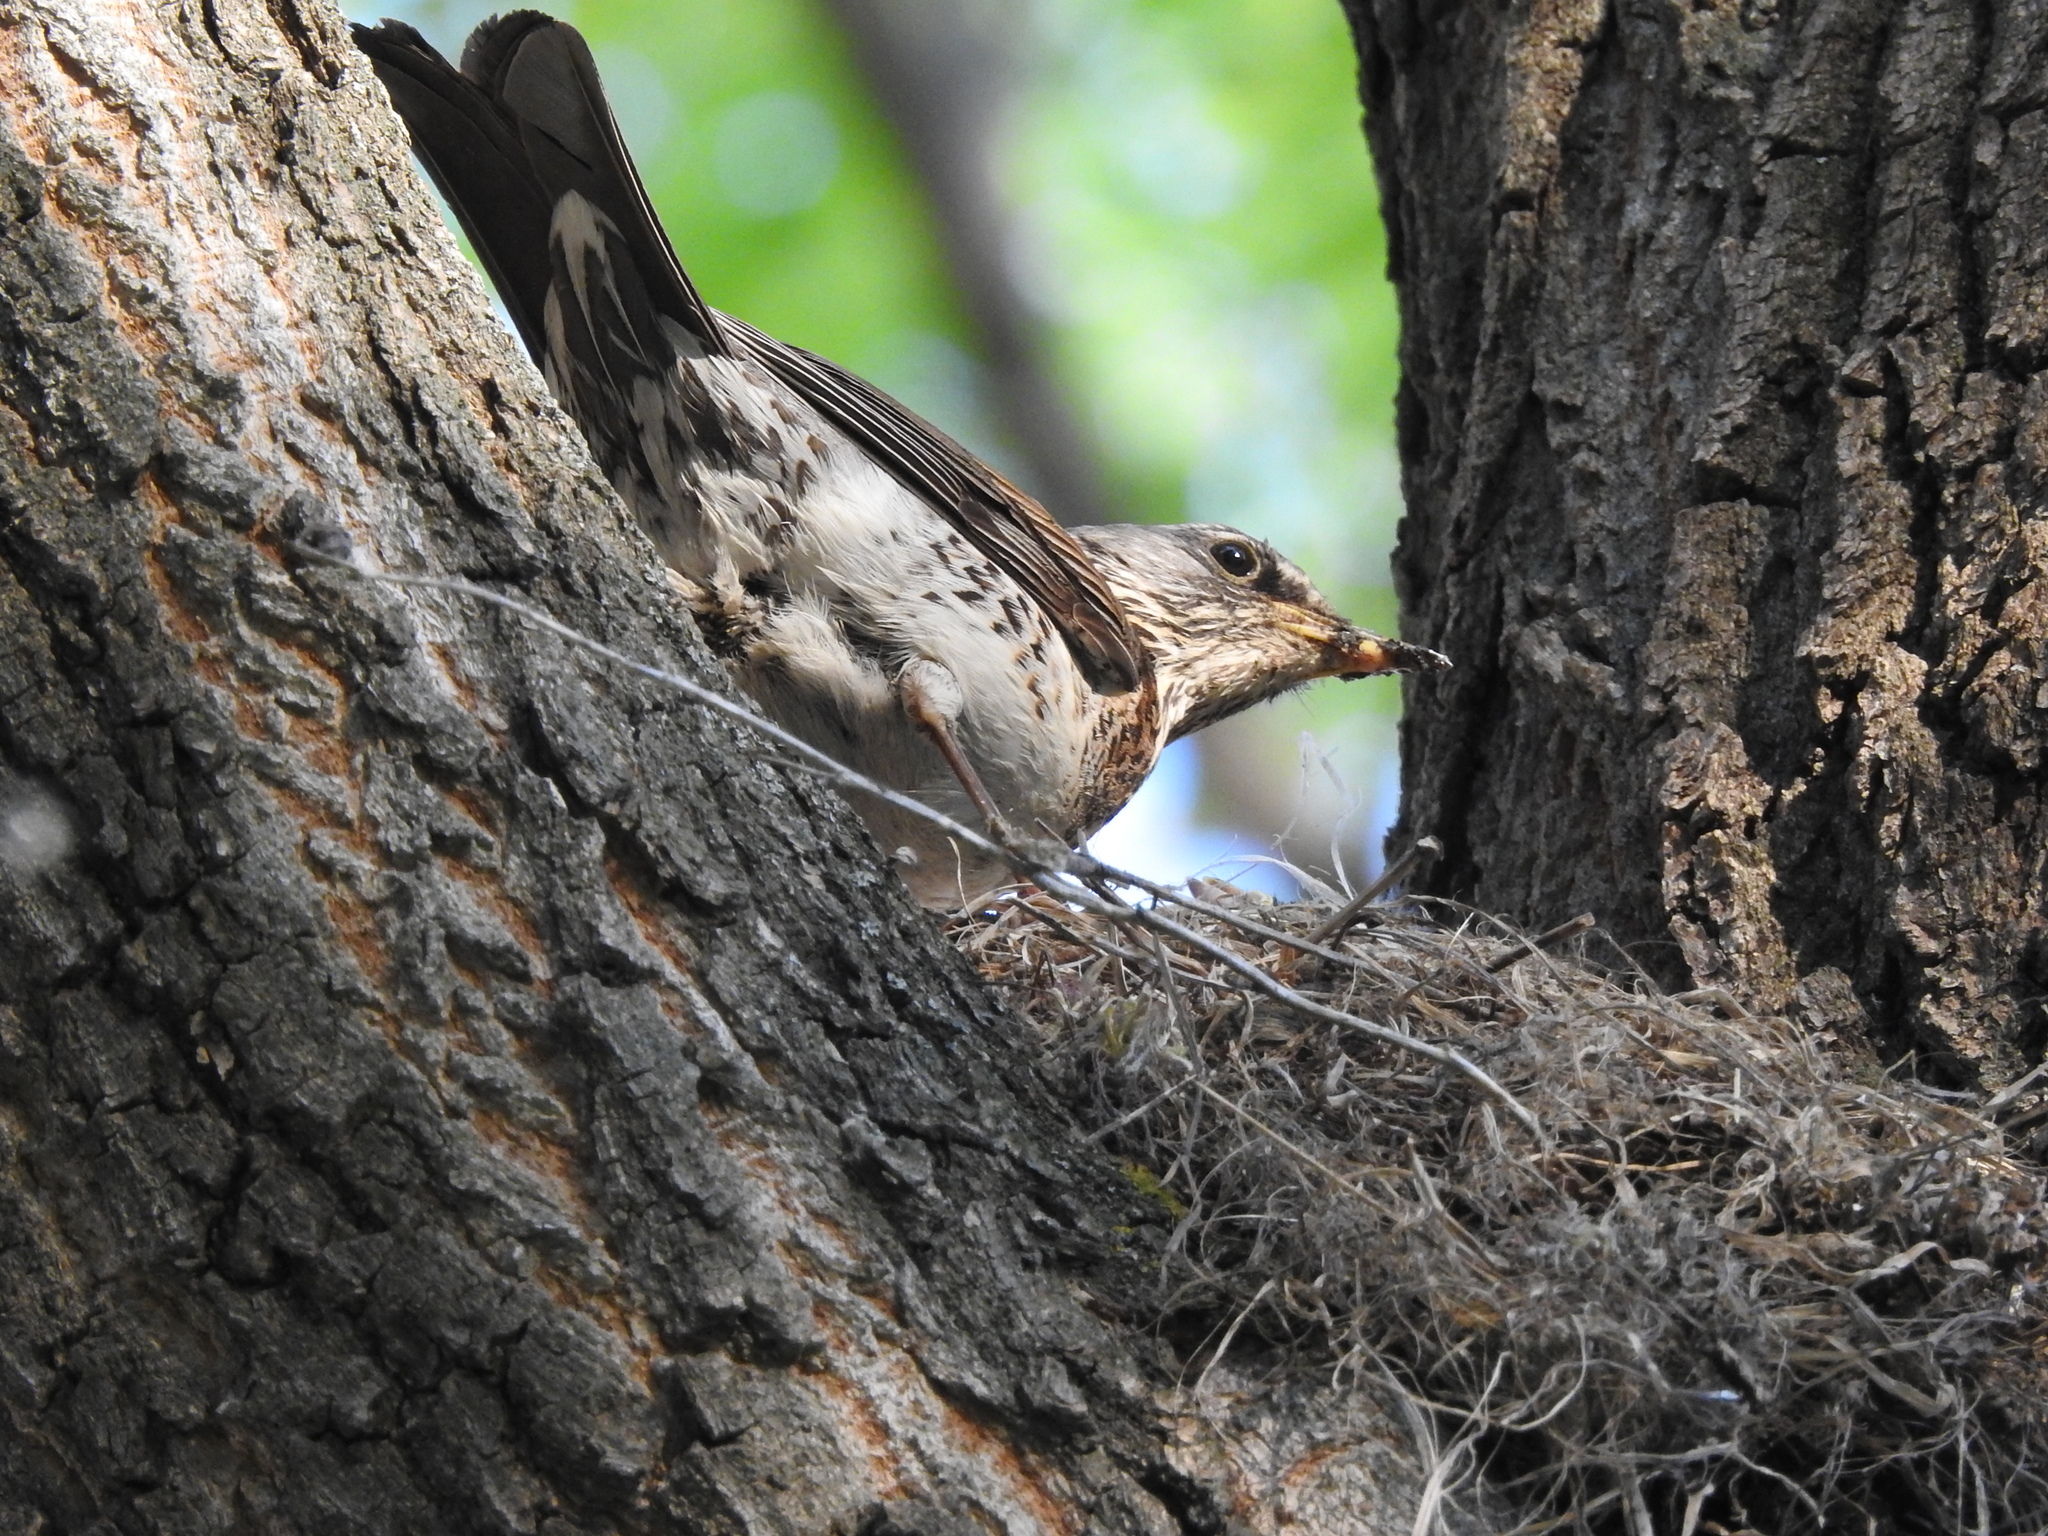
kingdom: Animalia
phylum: Chordata
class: Aves
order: Passeriformes
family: Turdidae
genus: Turdus
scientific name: Turdus pilaris
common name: Fieldfare
